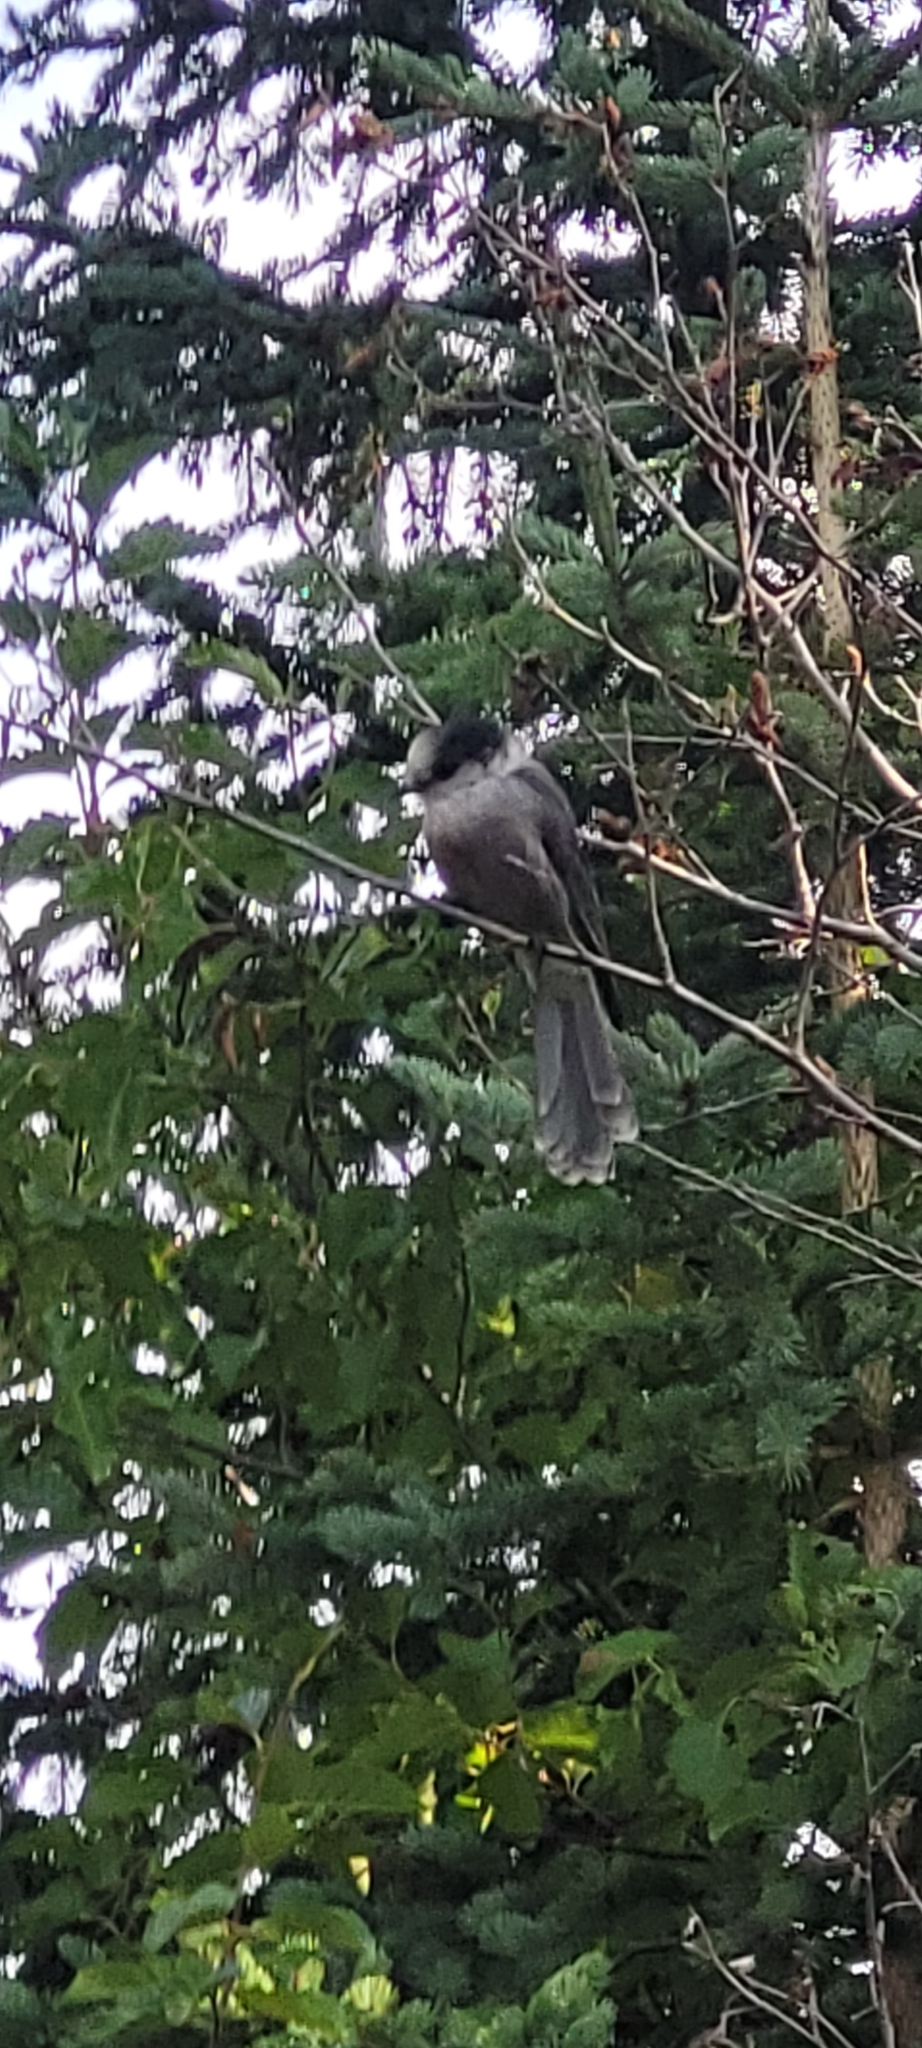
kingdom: Animalia
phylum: Chordata
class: Aves
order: Passeriformes
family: Corvidae
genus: Perisoreus
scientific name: Perisoreus canadensis
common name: Gray jay
